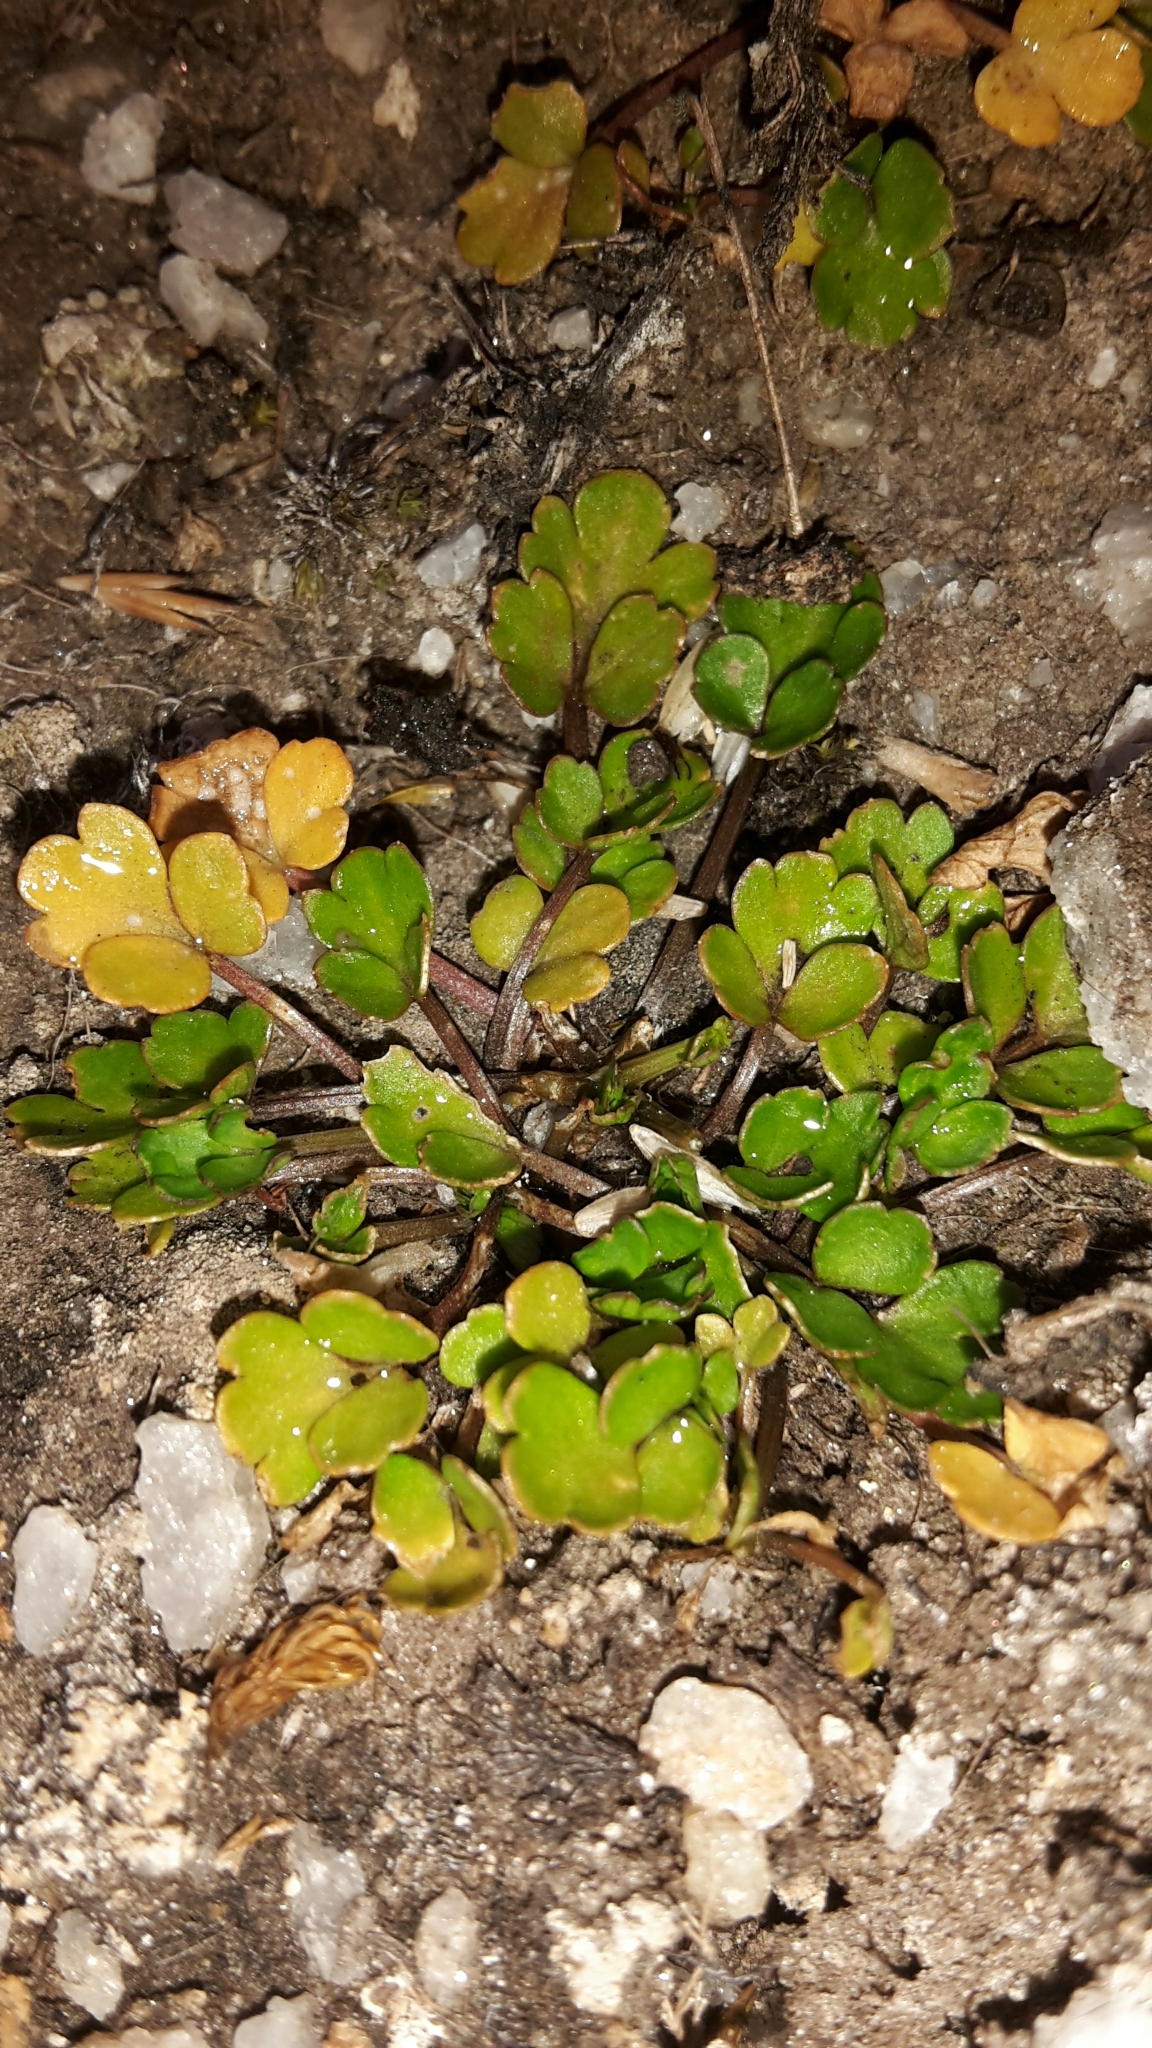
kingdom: Plantae
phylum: Tracheophyta
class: Magnoliopsida
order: Apiales
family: Apiaceae
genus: Apium
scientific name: Apium prostratum
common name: Prostrate marshwort
